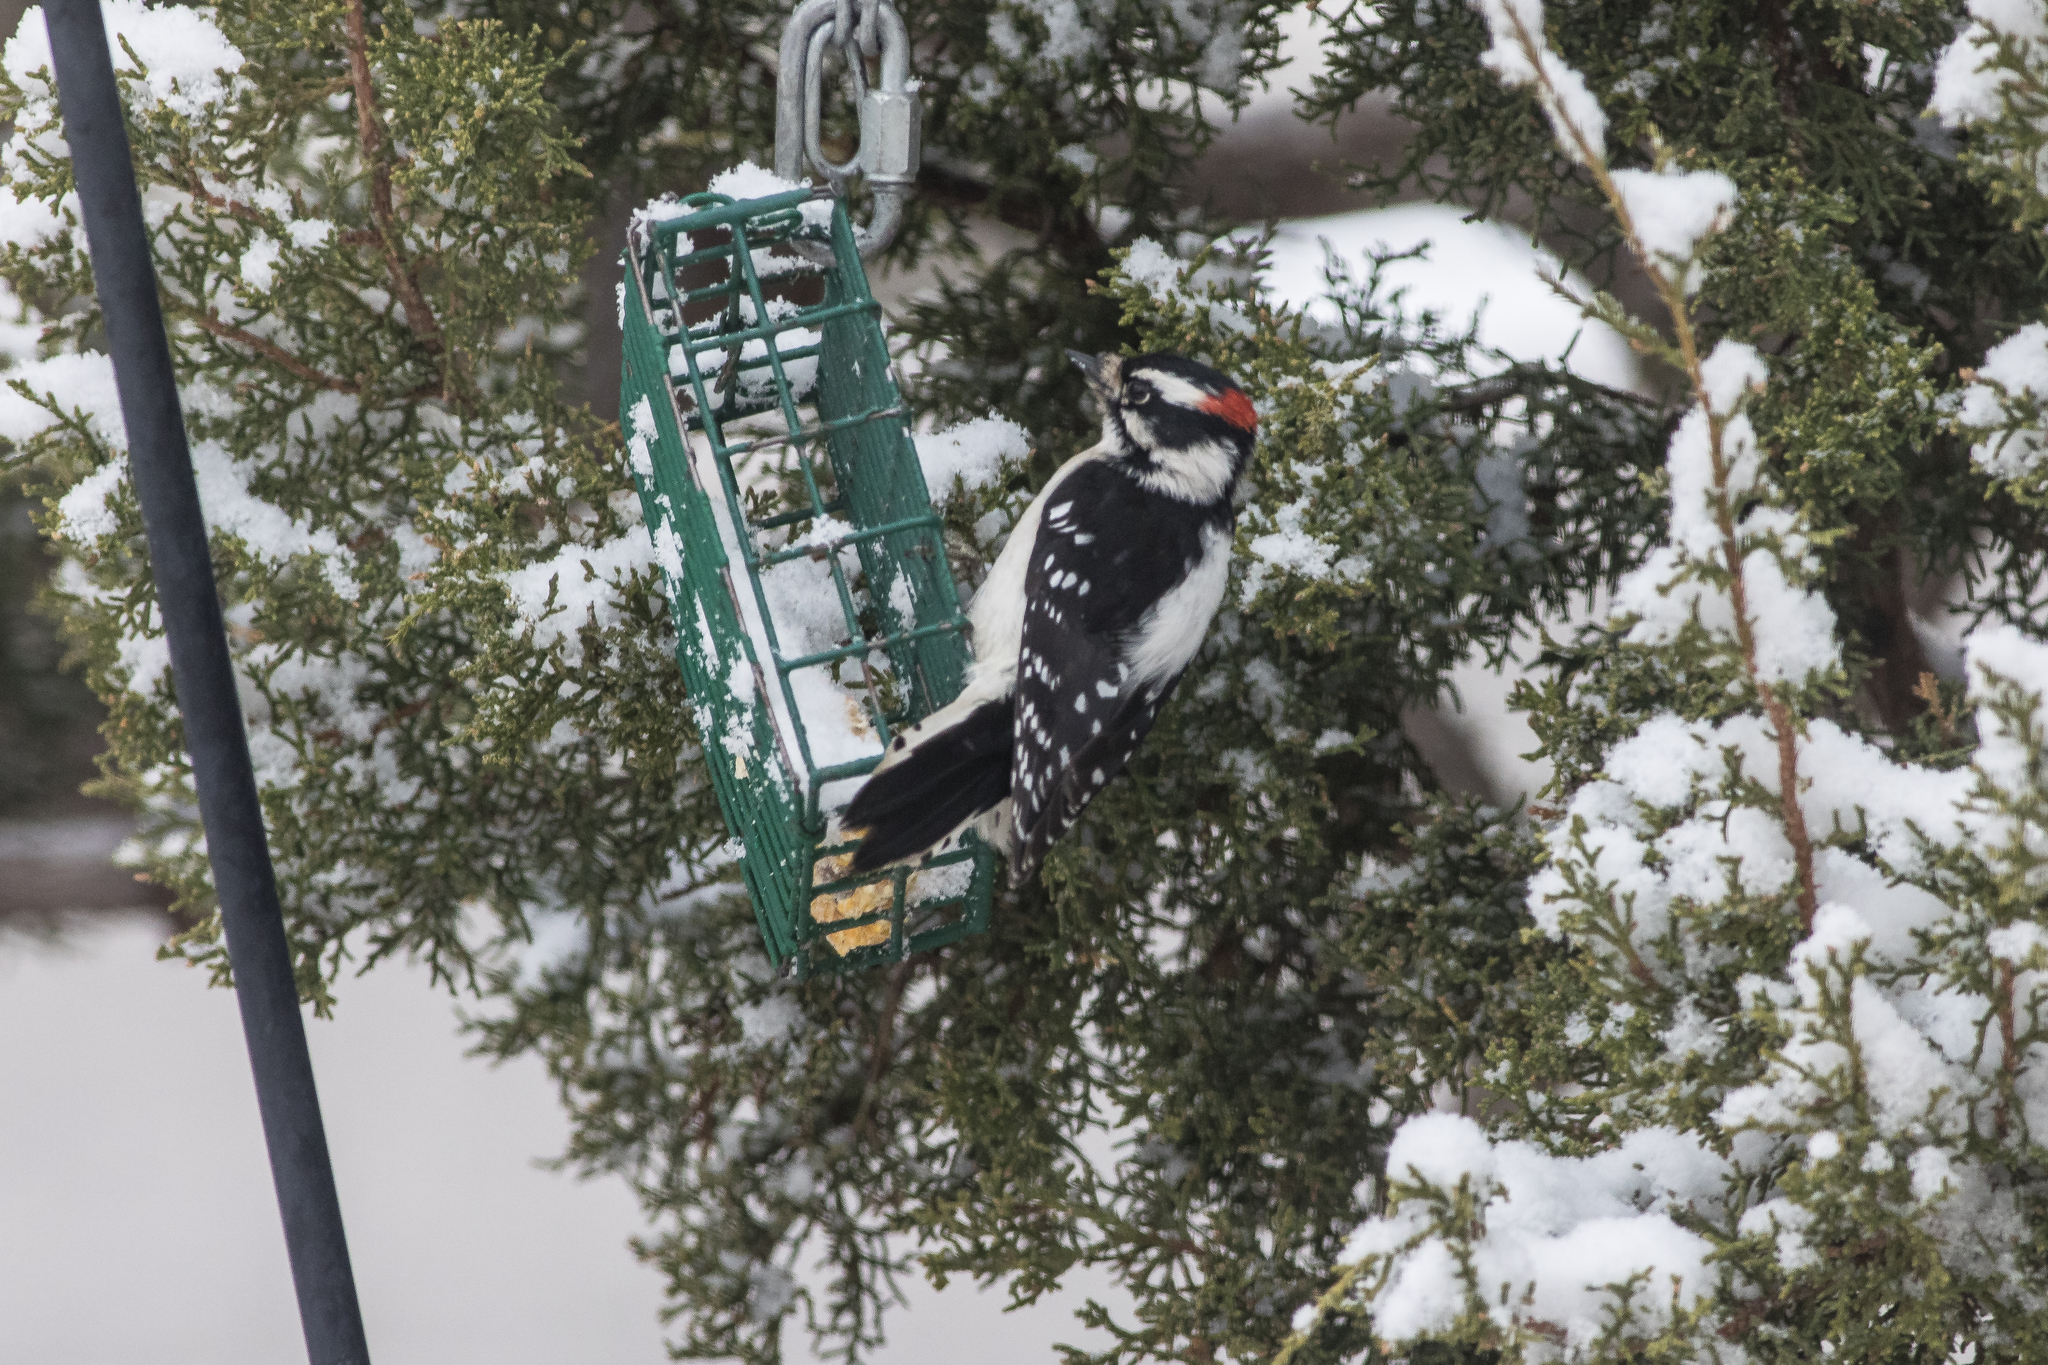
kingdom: Animalia
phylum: Chordata
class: Aves
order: Piciformes
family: Picidae
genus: Dryobates
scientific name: Dryobates pubescens
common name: Downy woodpecker
